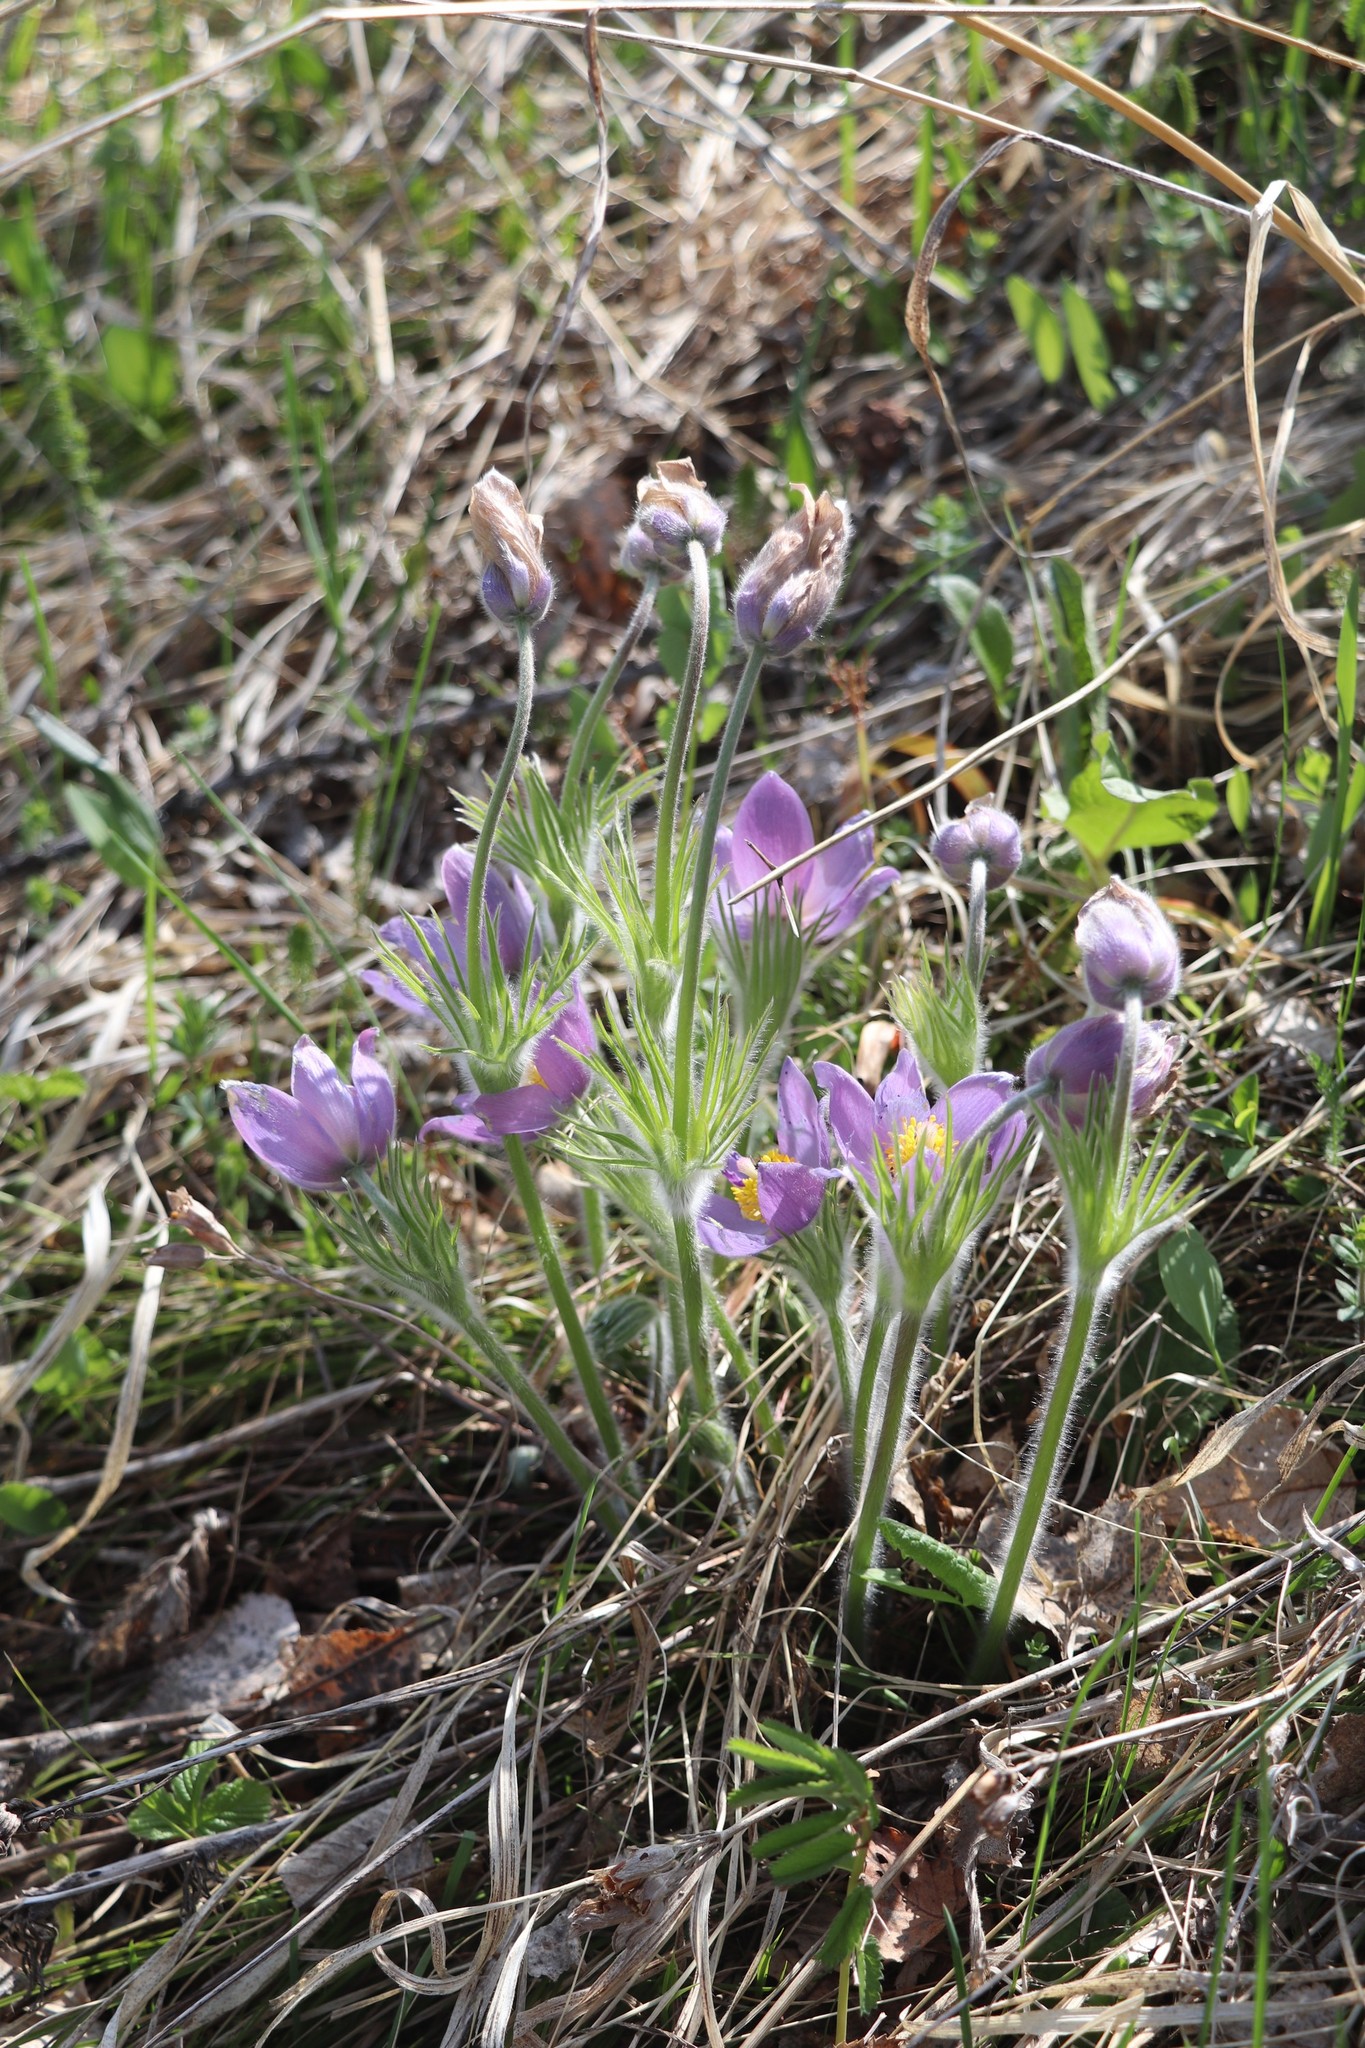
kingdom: Plantae
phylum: Tracheophyta
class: Magnoliopsida
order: Ranunculales
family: Ranunculaceae
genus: Pulsatilla
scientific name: Pulsatilla patens
